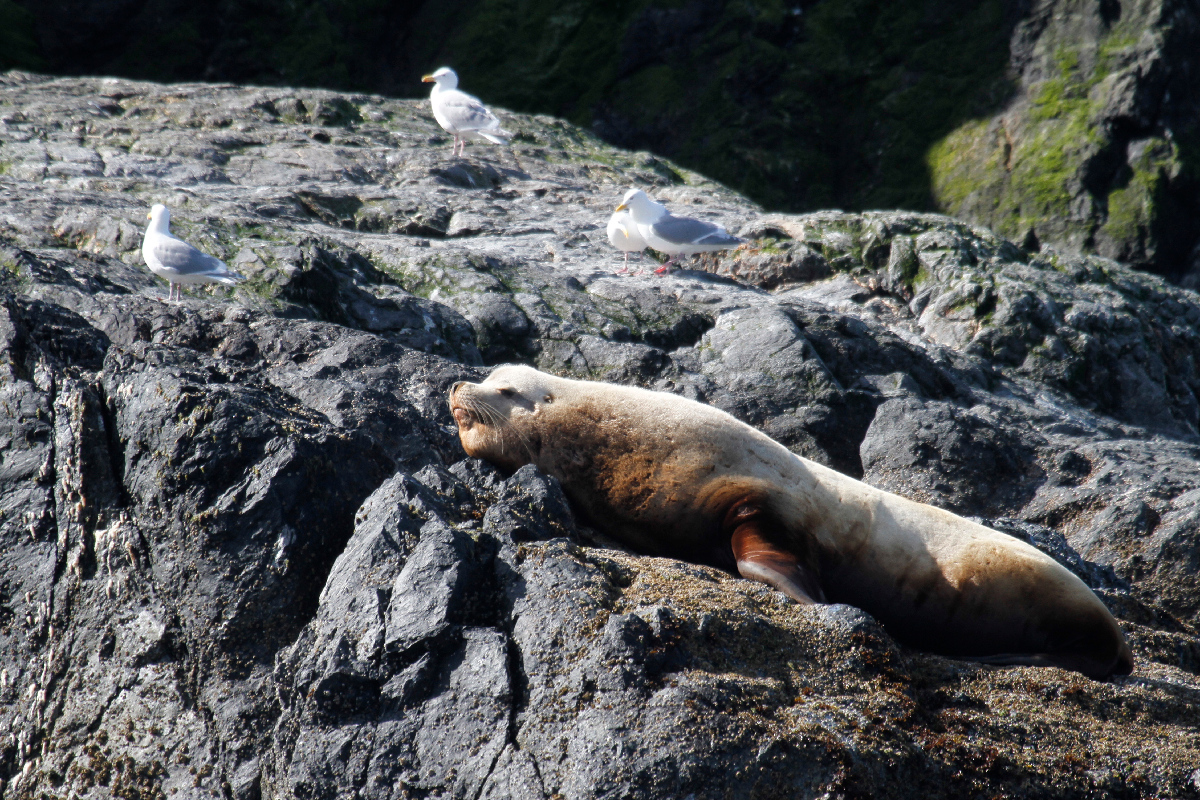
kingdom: Animalia
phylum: Chordata
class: Mammalia
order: Carnivora
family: Otariidae
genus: Eumetopias
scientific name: Eumetopias jubatus
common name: Steller sea lion
